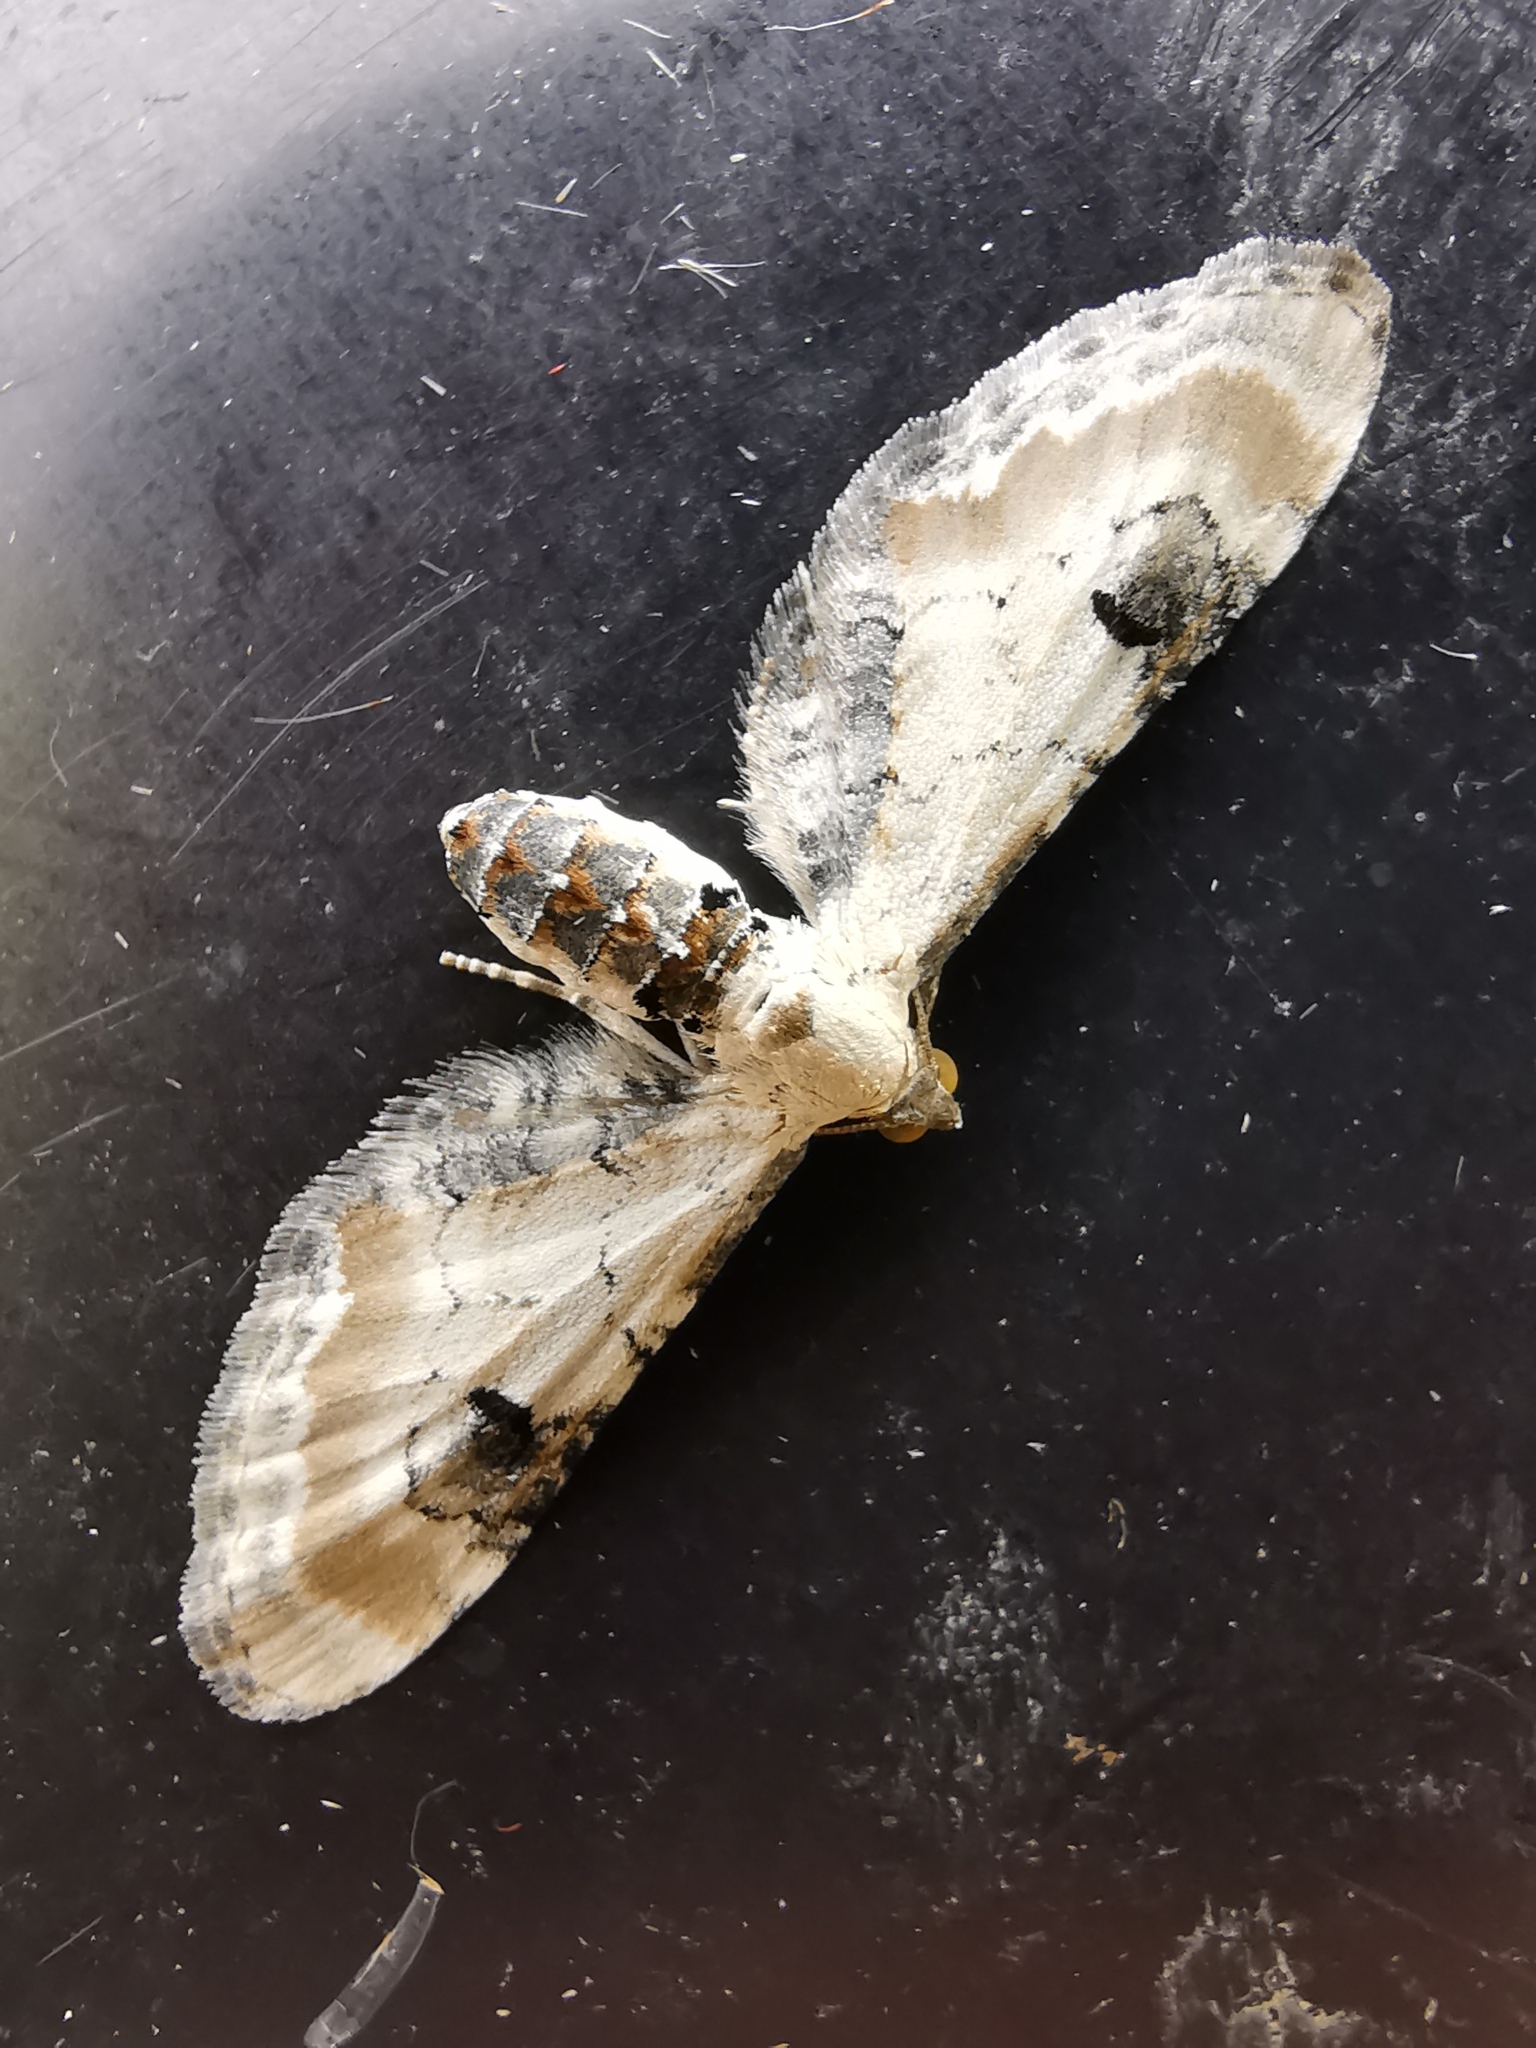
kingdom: Animalia
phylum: Arthropoda
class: Insecta
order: Lepidoptera
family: Geometridae
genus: Eupithecia
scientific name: Eupithecia centaureata
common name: Lime-speck pug
